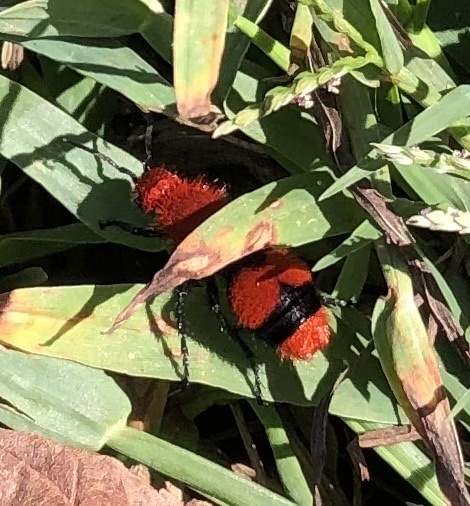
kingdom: Animalia
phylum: Arthropoda
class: Insecta
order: Hymenoptera
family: Mutillidae
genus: Dasymutilla
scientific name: Dasymutilla occidentalis
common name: Common eastern velvet ant
